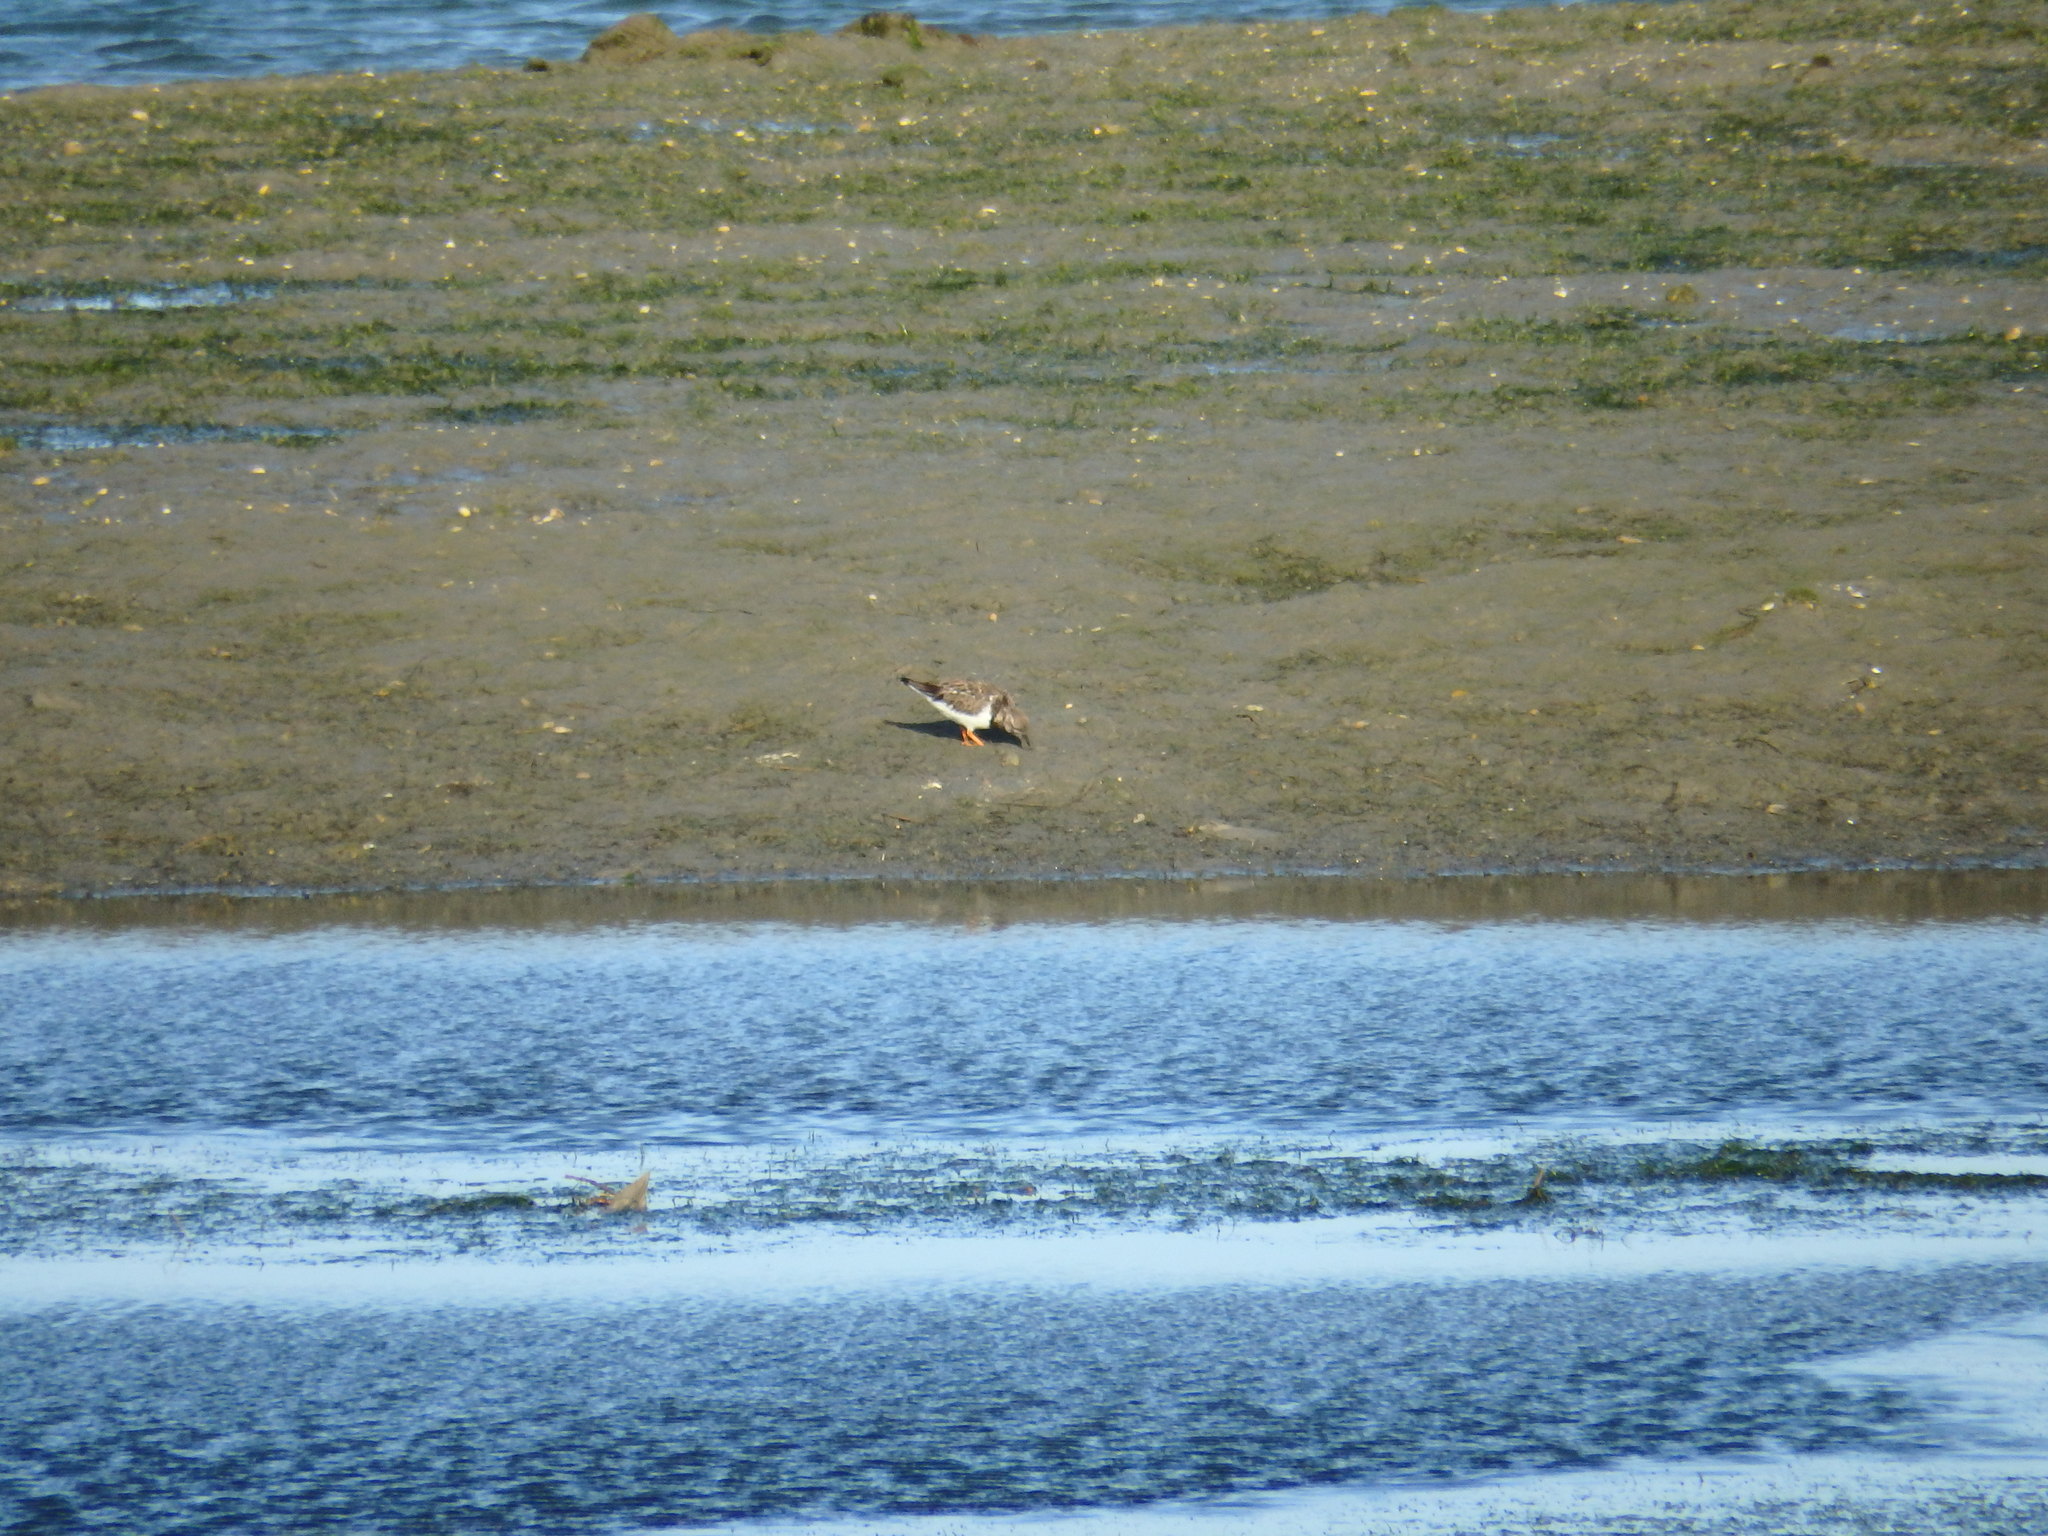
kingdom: Animalia
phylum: Chordata
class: Aves
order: Charadriiformes
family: Scolopacidae
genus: Arenaria
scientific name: Arenaria interpres
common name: Ruddy turnstone
